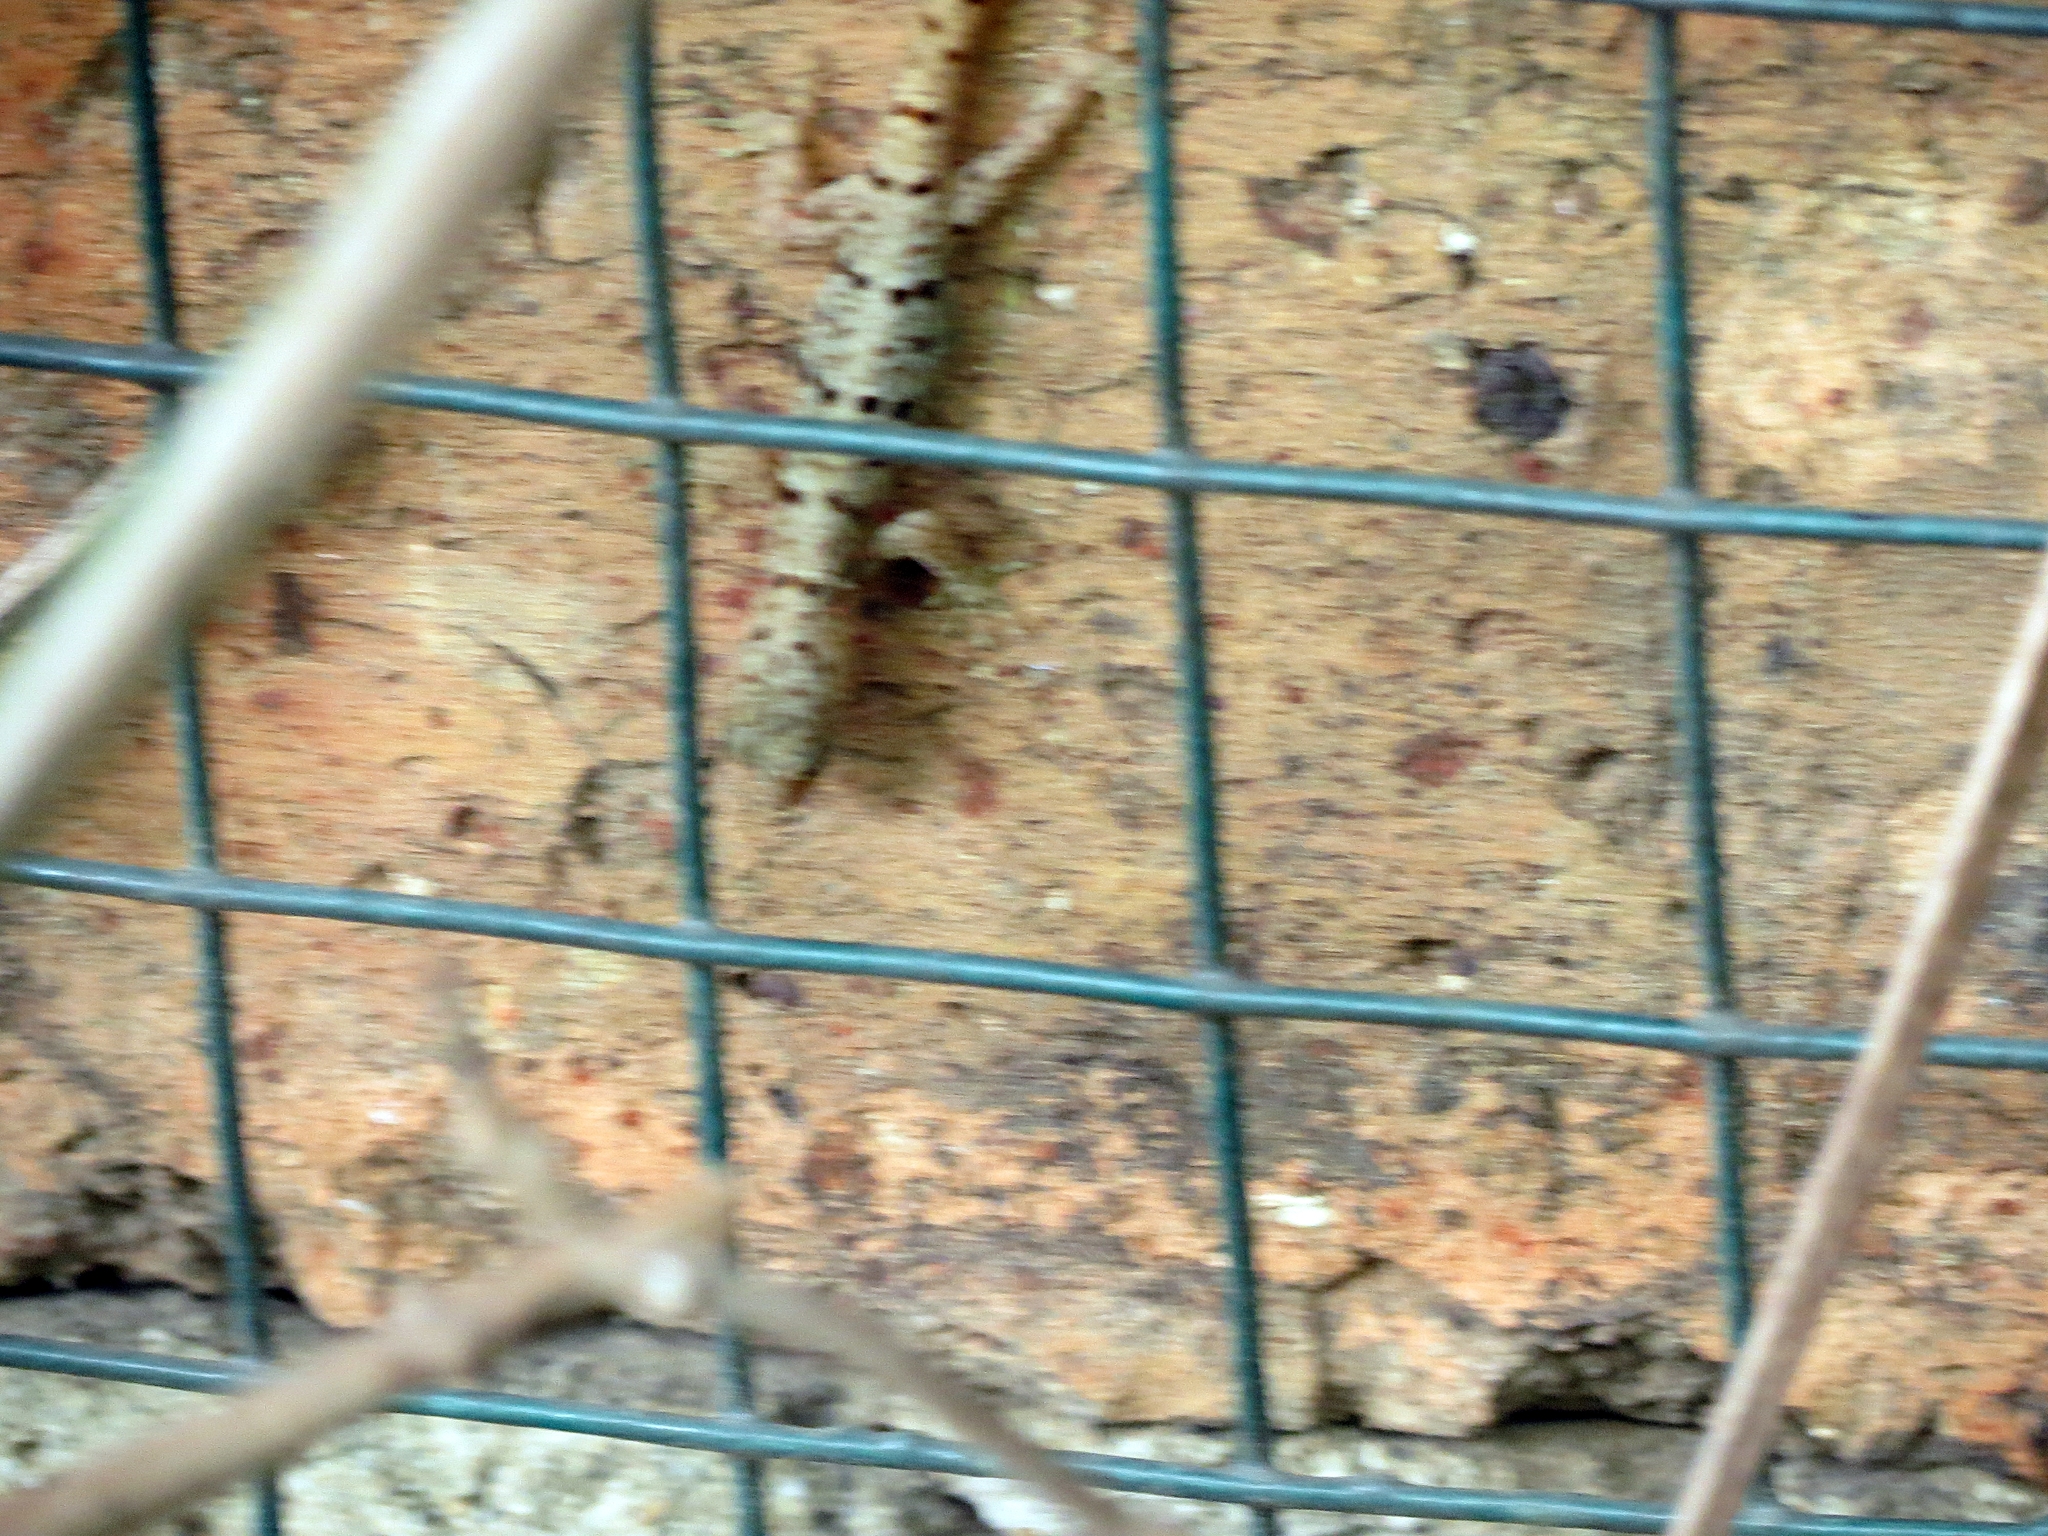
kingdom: Animalia
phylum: Chordata
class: Squamata
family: Sphaerodactylidae
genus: Gonatodes
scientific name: Gonatodes albogularis
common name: Yellow-headed gecko
